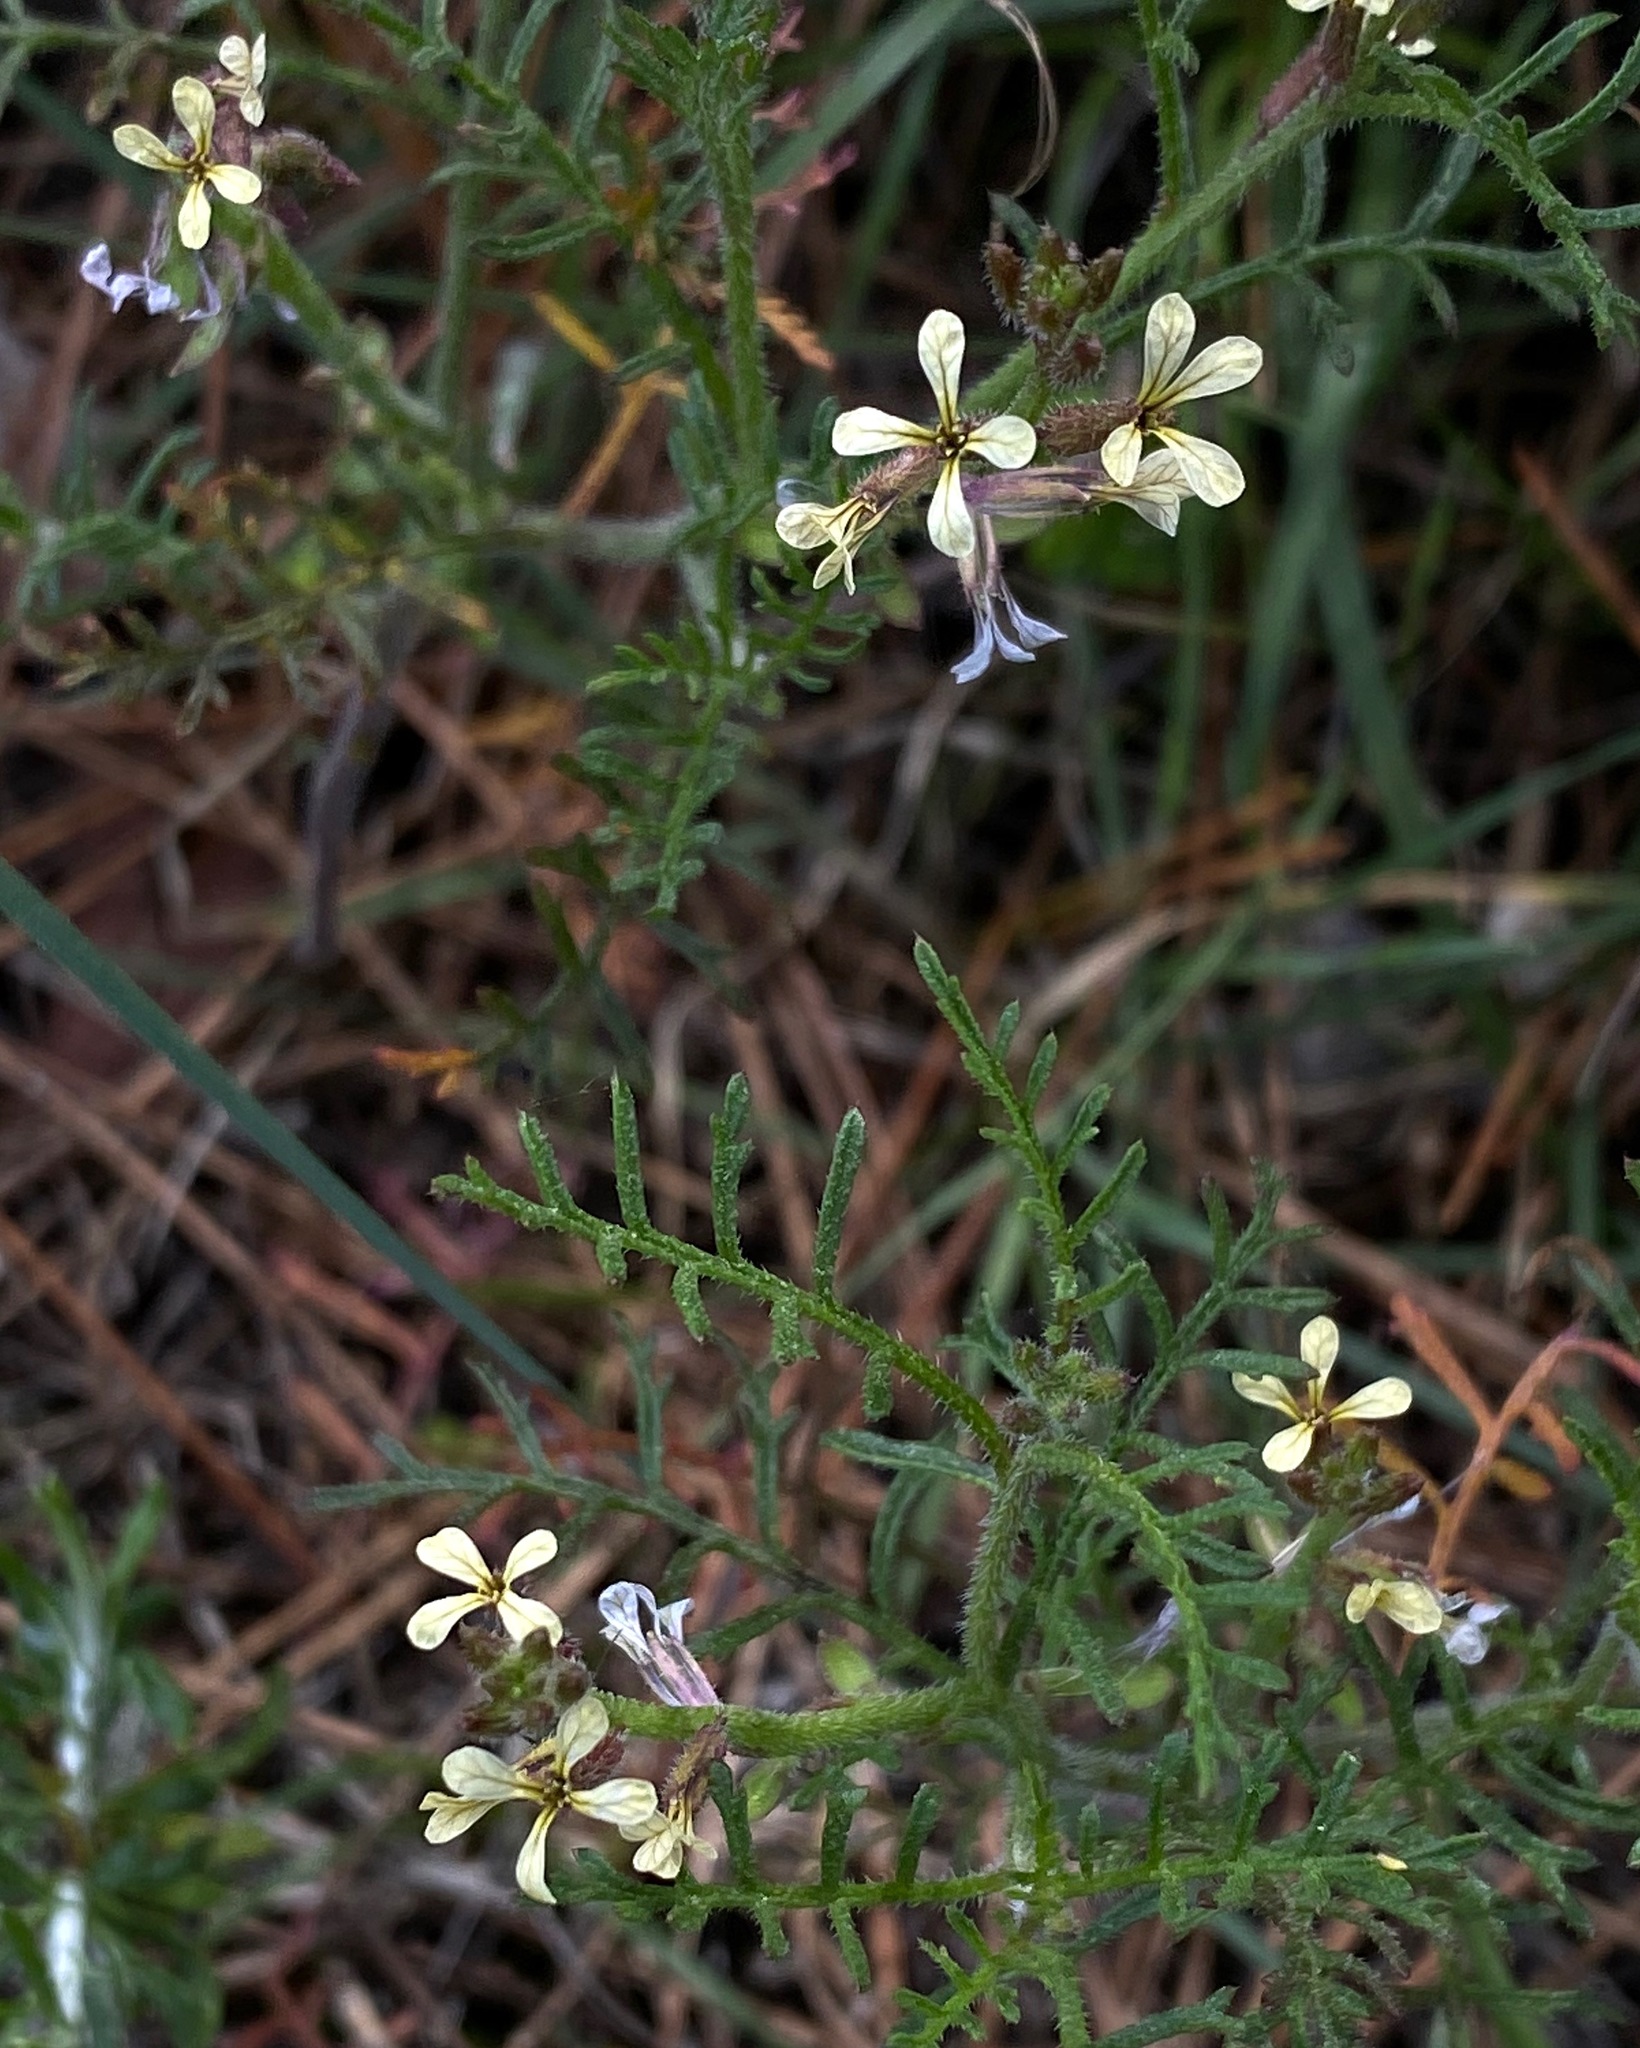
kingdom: Plantae
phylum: Tracheophyta
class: Magnoliopsida
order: Brassicales
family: Brassicaceae
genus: Carrichtera
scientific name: Carrichtera annua
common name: Cress rocket
